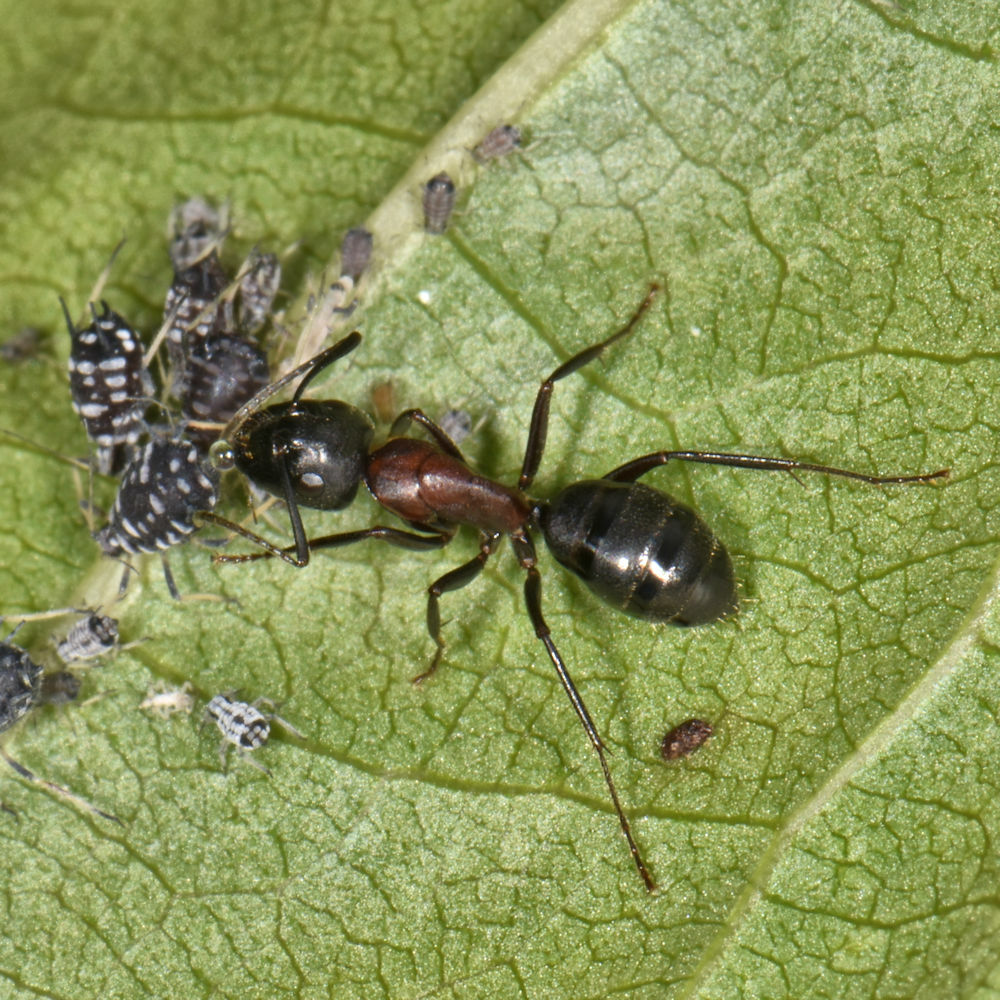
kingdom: Animalia
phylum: Arthropoda
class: Insecta
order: Hymenoptera
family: Formicidae
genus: Camponotus
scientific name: Camponotus novaeboracensis
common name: New york carpenter ant
